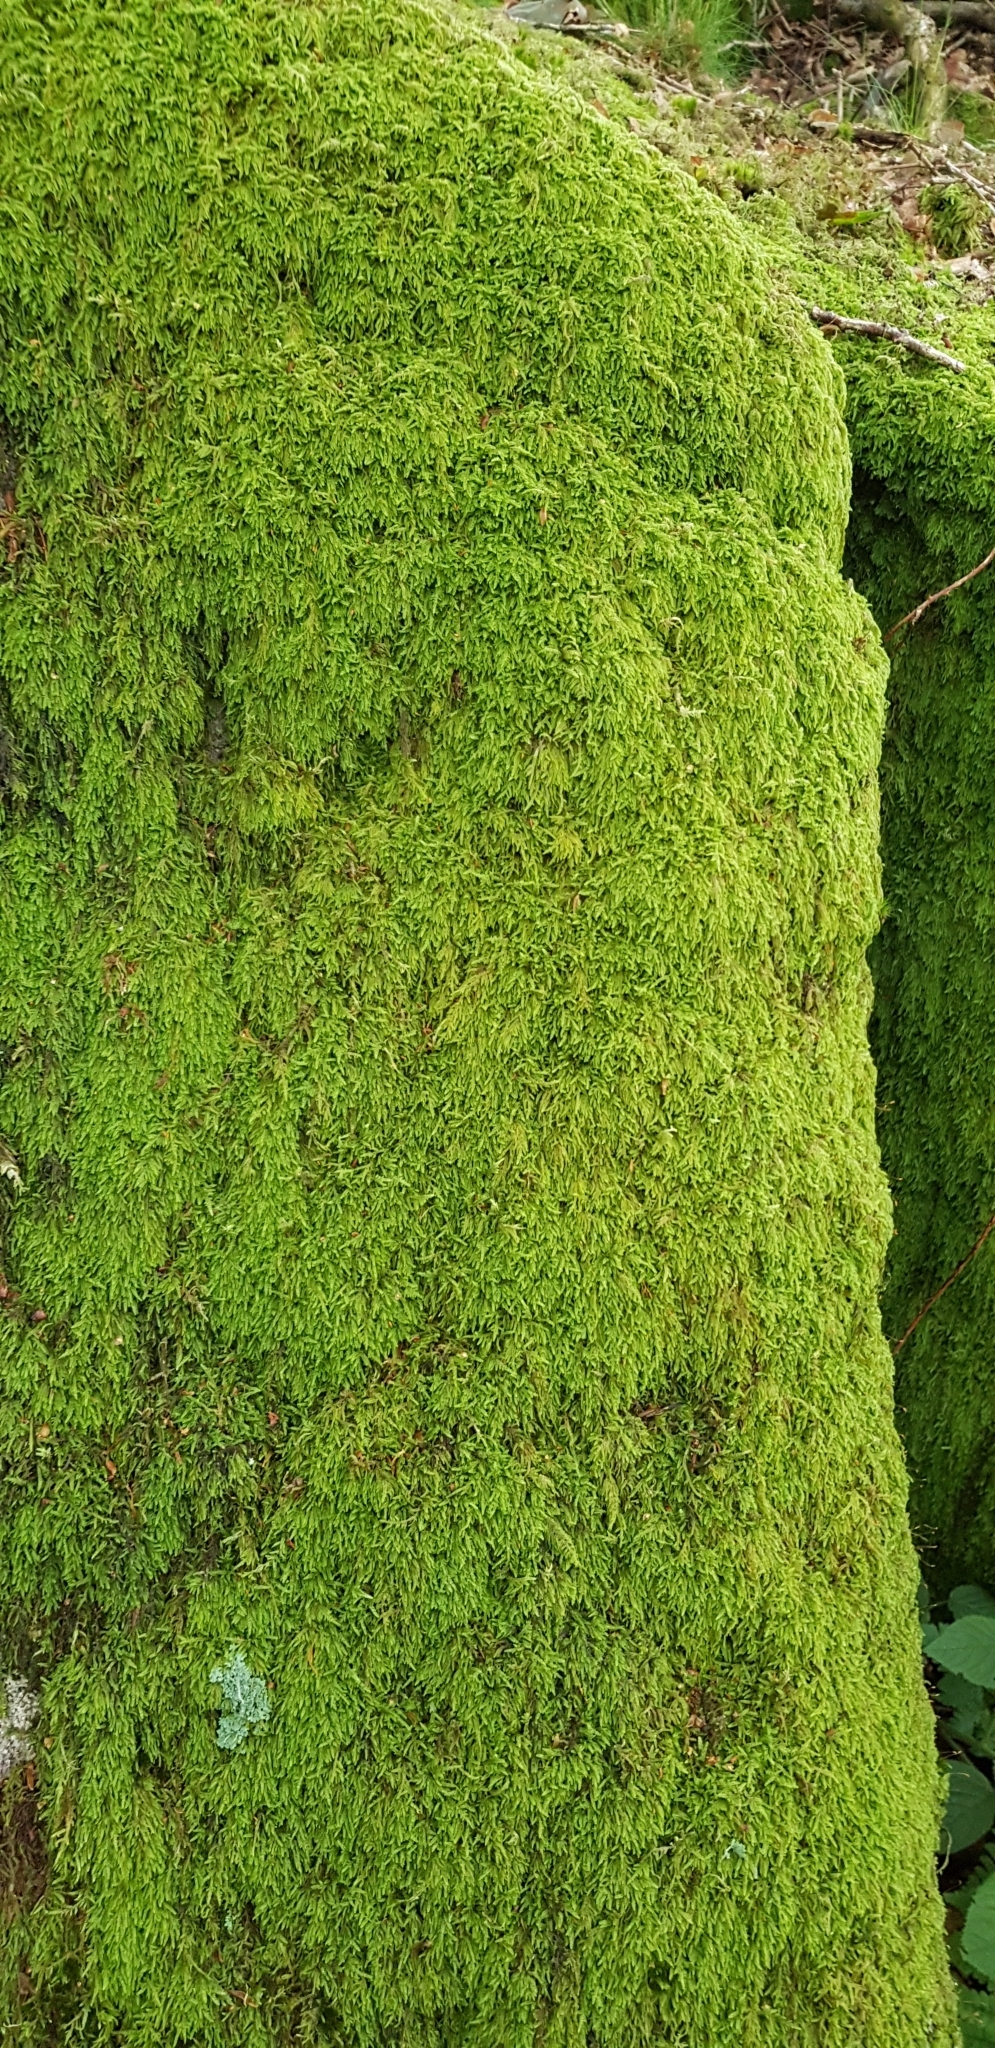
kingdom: Plantae
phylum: Bryophyta
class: Bryopsida
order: Hypnales
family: Hypnaceae
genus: Hypnum
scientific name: Hypnum cupressiforme
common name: Cypress-leaved plait-moss
